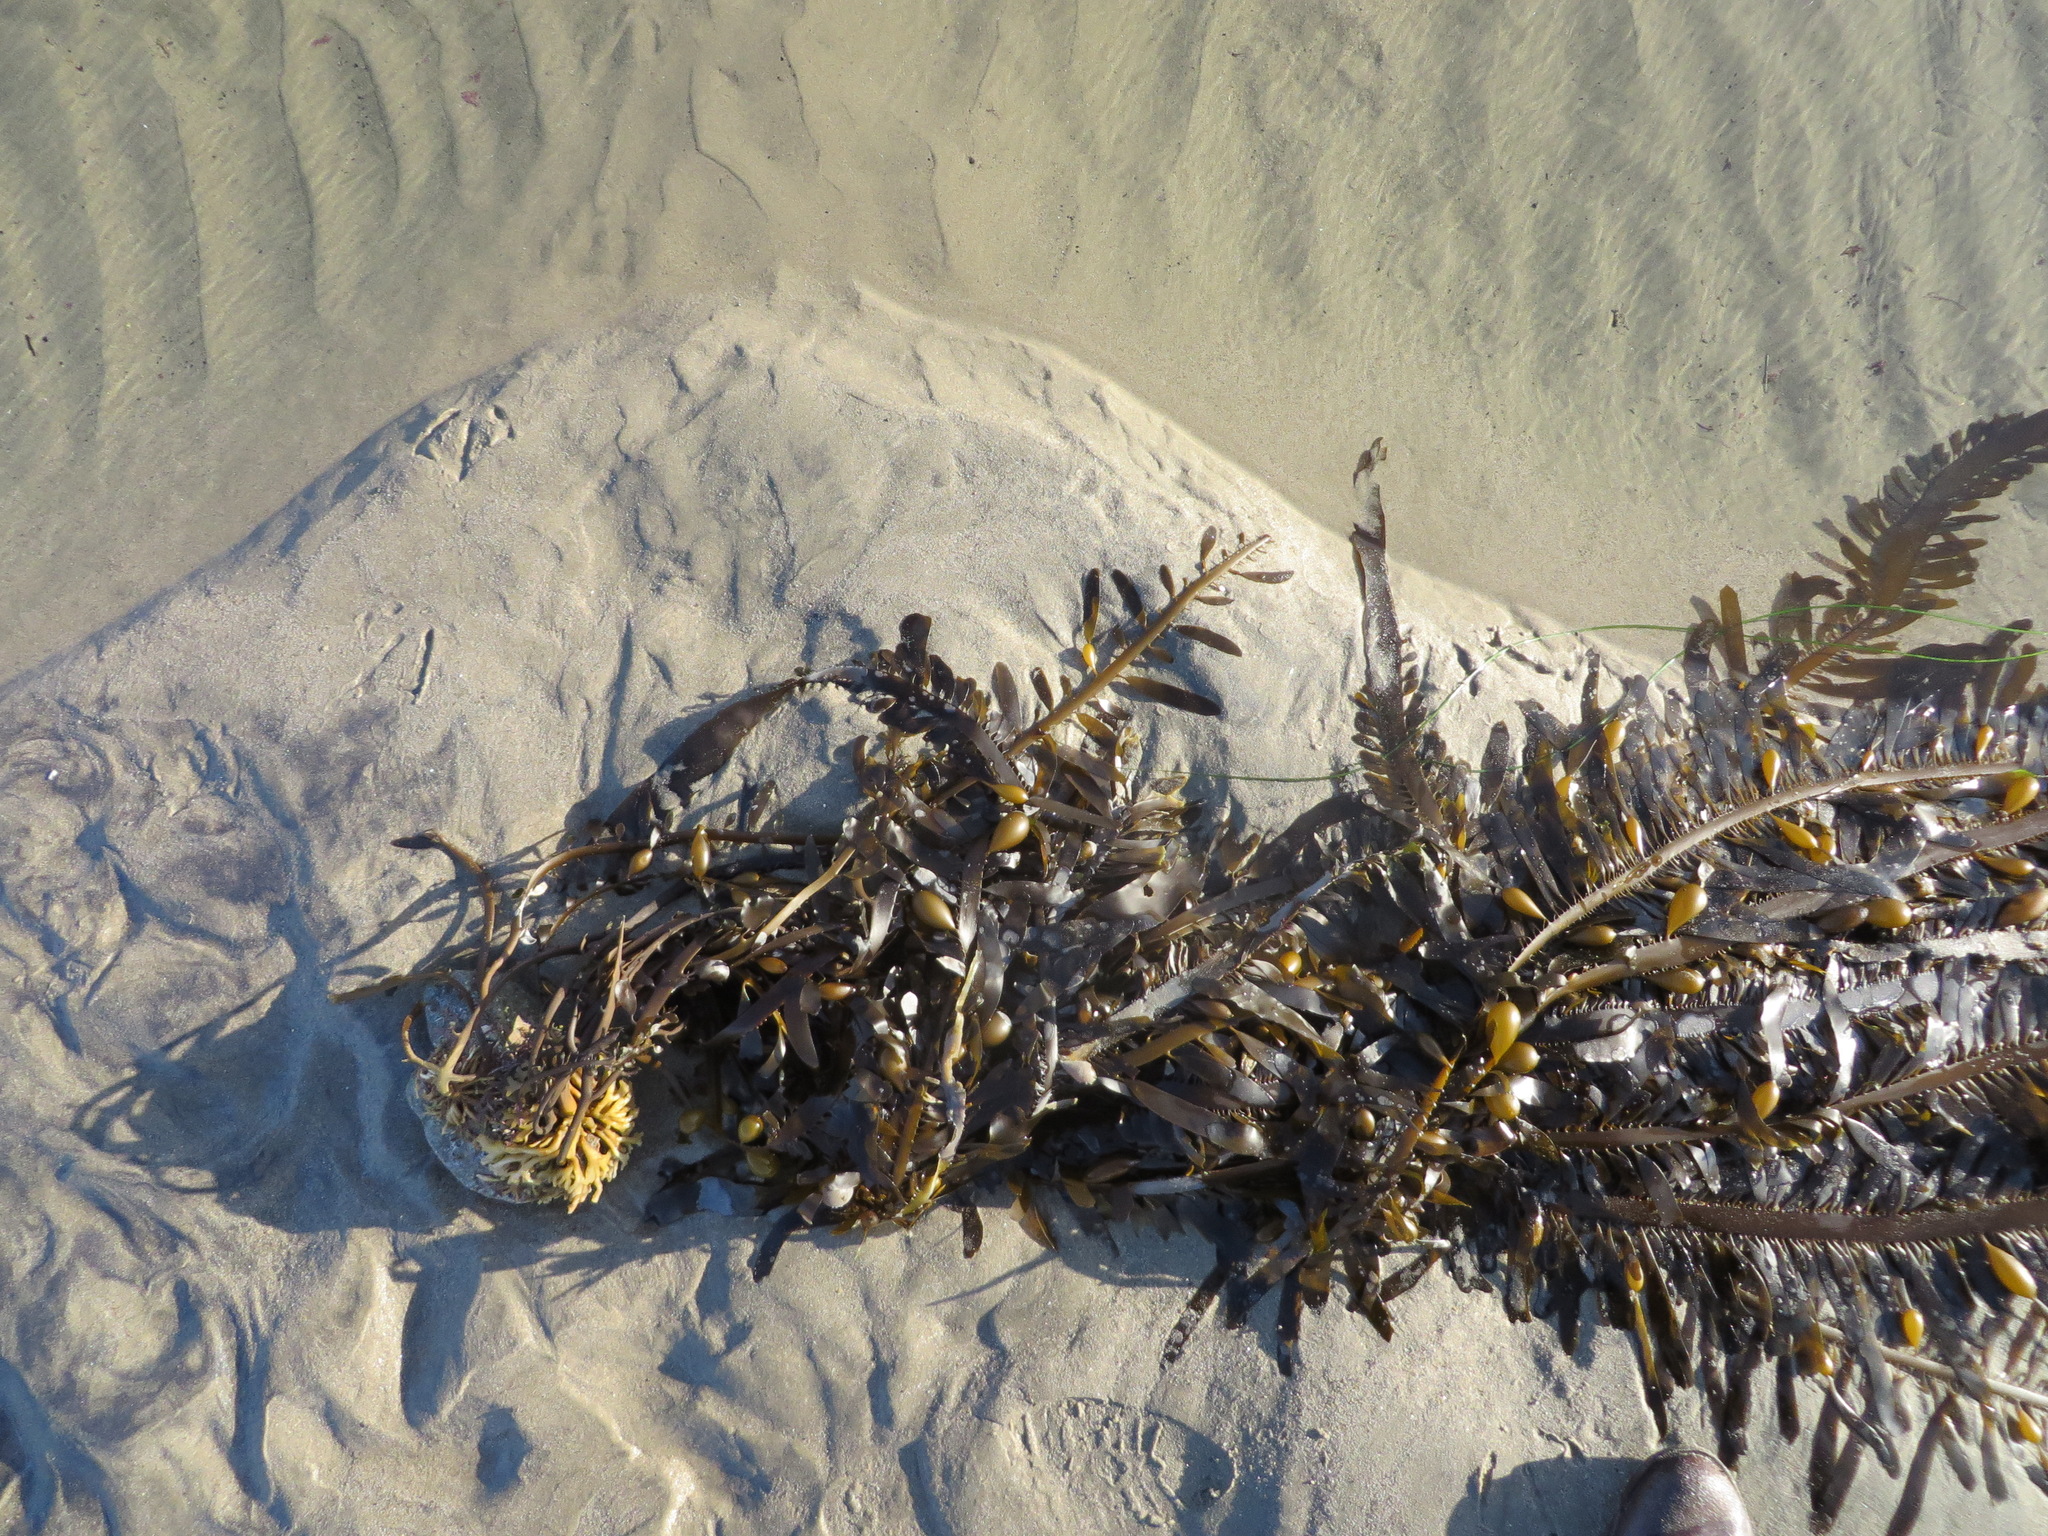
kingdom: Chromista
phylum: Ochrophyta
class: Phaeophyceae
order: Laminariales
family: Lessoniaceae
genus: Egregia
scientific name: Egregia menziesii
